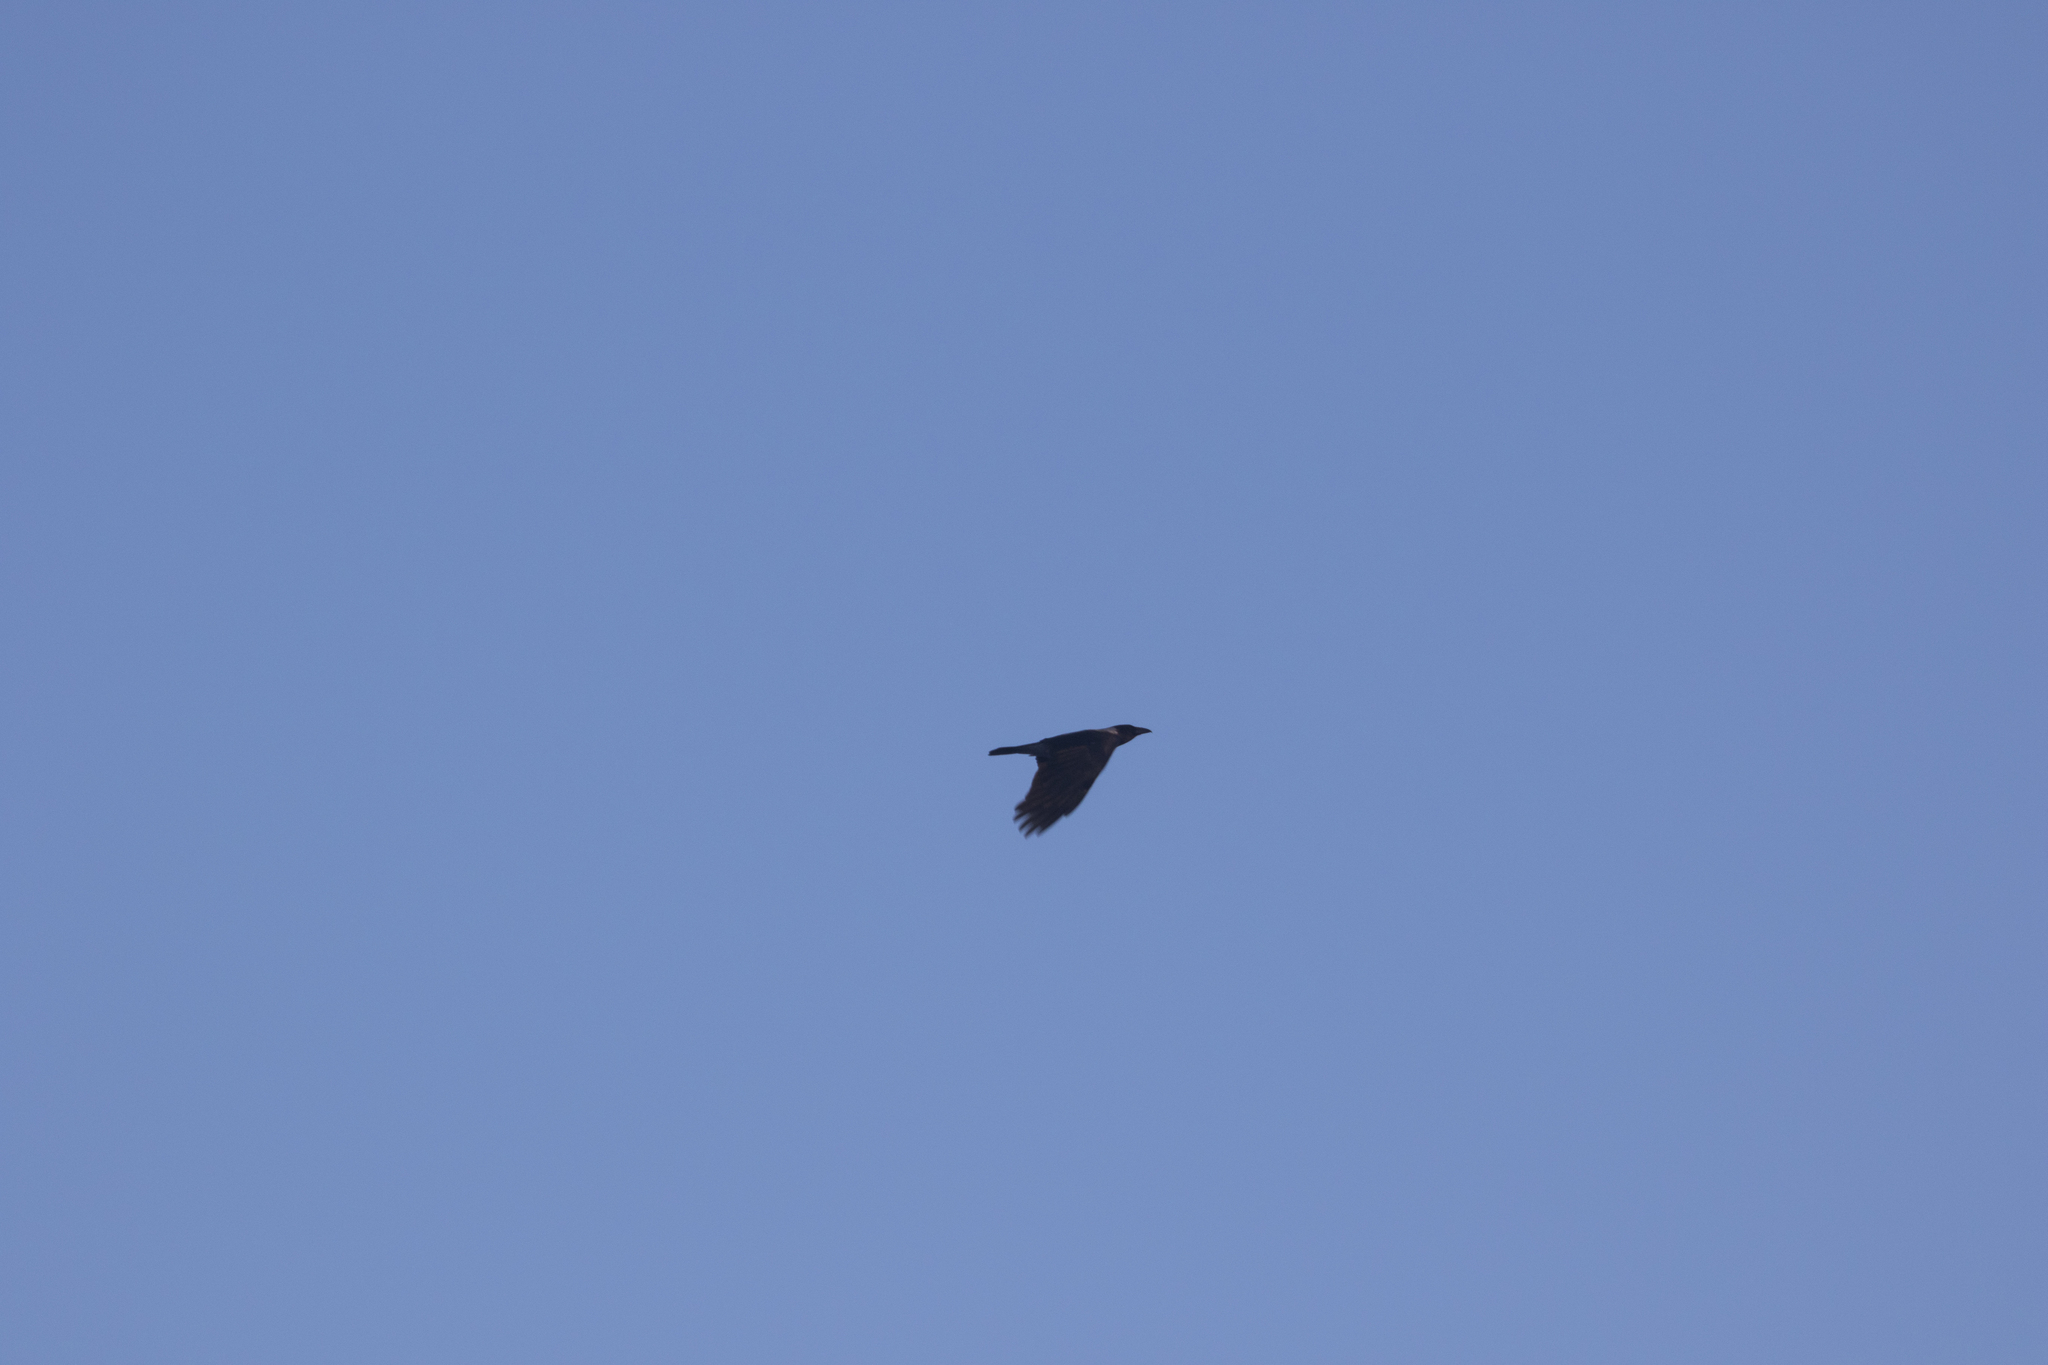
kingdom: Animalia
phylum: Chordata
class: Aves
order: Passeriformes
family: Corvidae
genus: Corvus
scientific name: Corvus cornix
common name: Hooded crow
